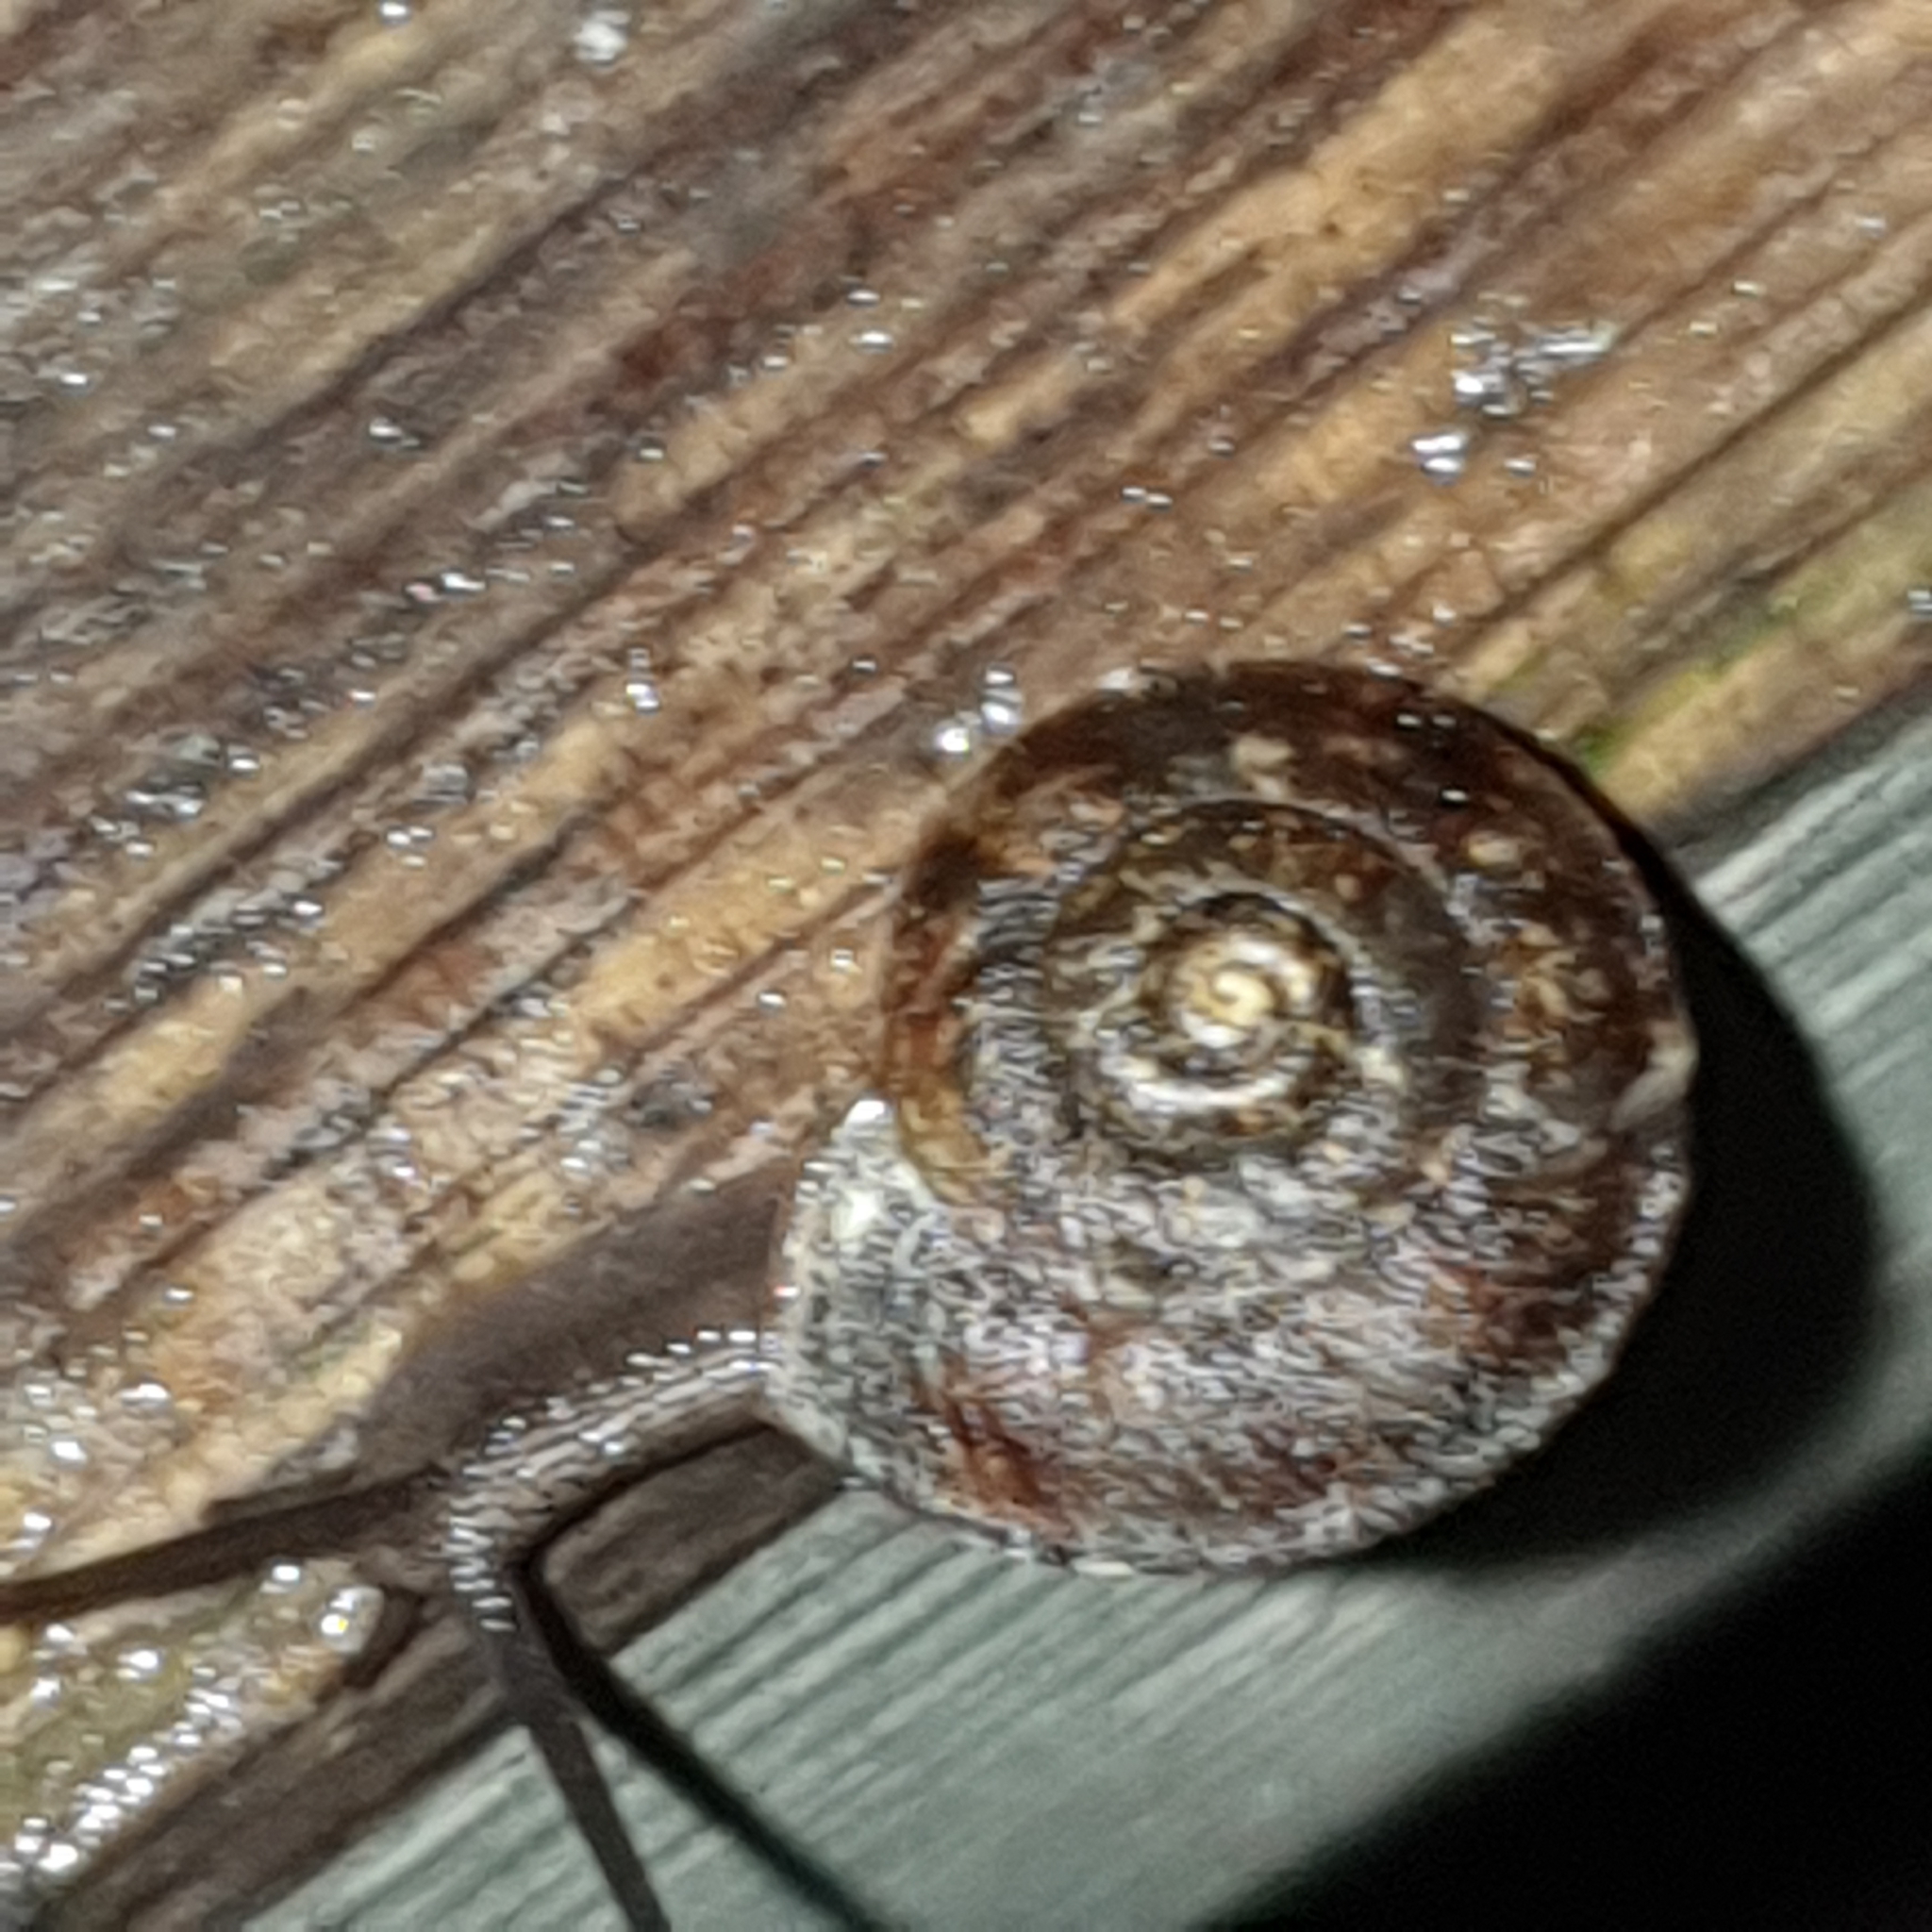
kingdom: Animalia
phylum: Mollusca
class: Gastropoda
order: Stylommatophora
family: Helicidae
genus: Helicigona
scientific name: Helicigona lapicida
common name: Lapidary snail
